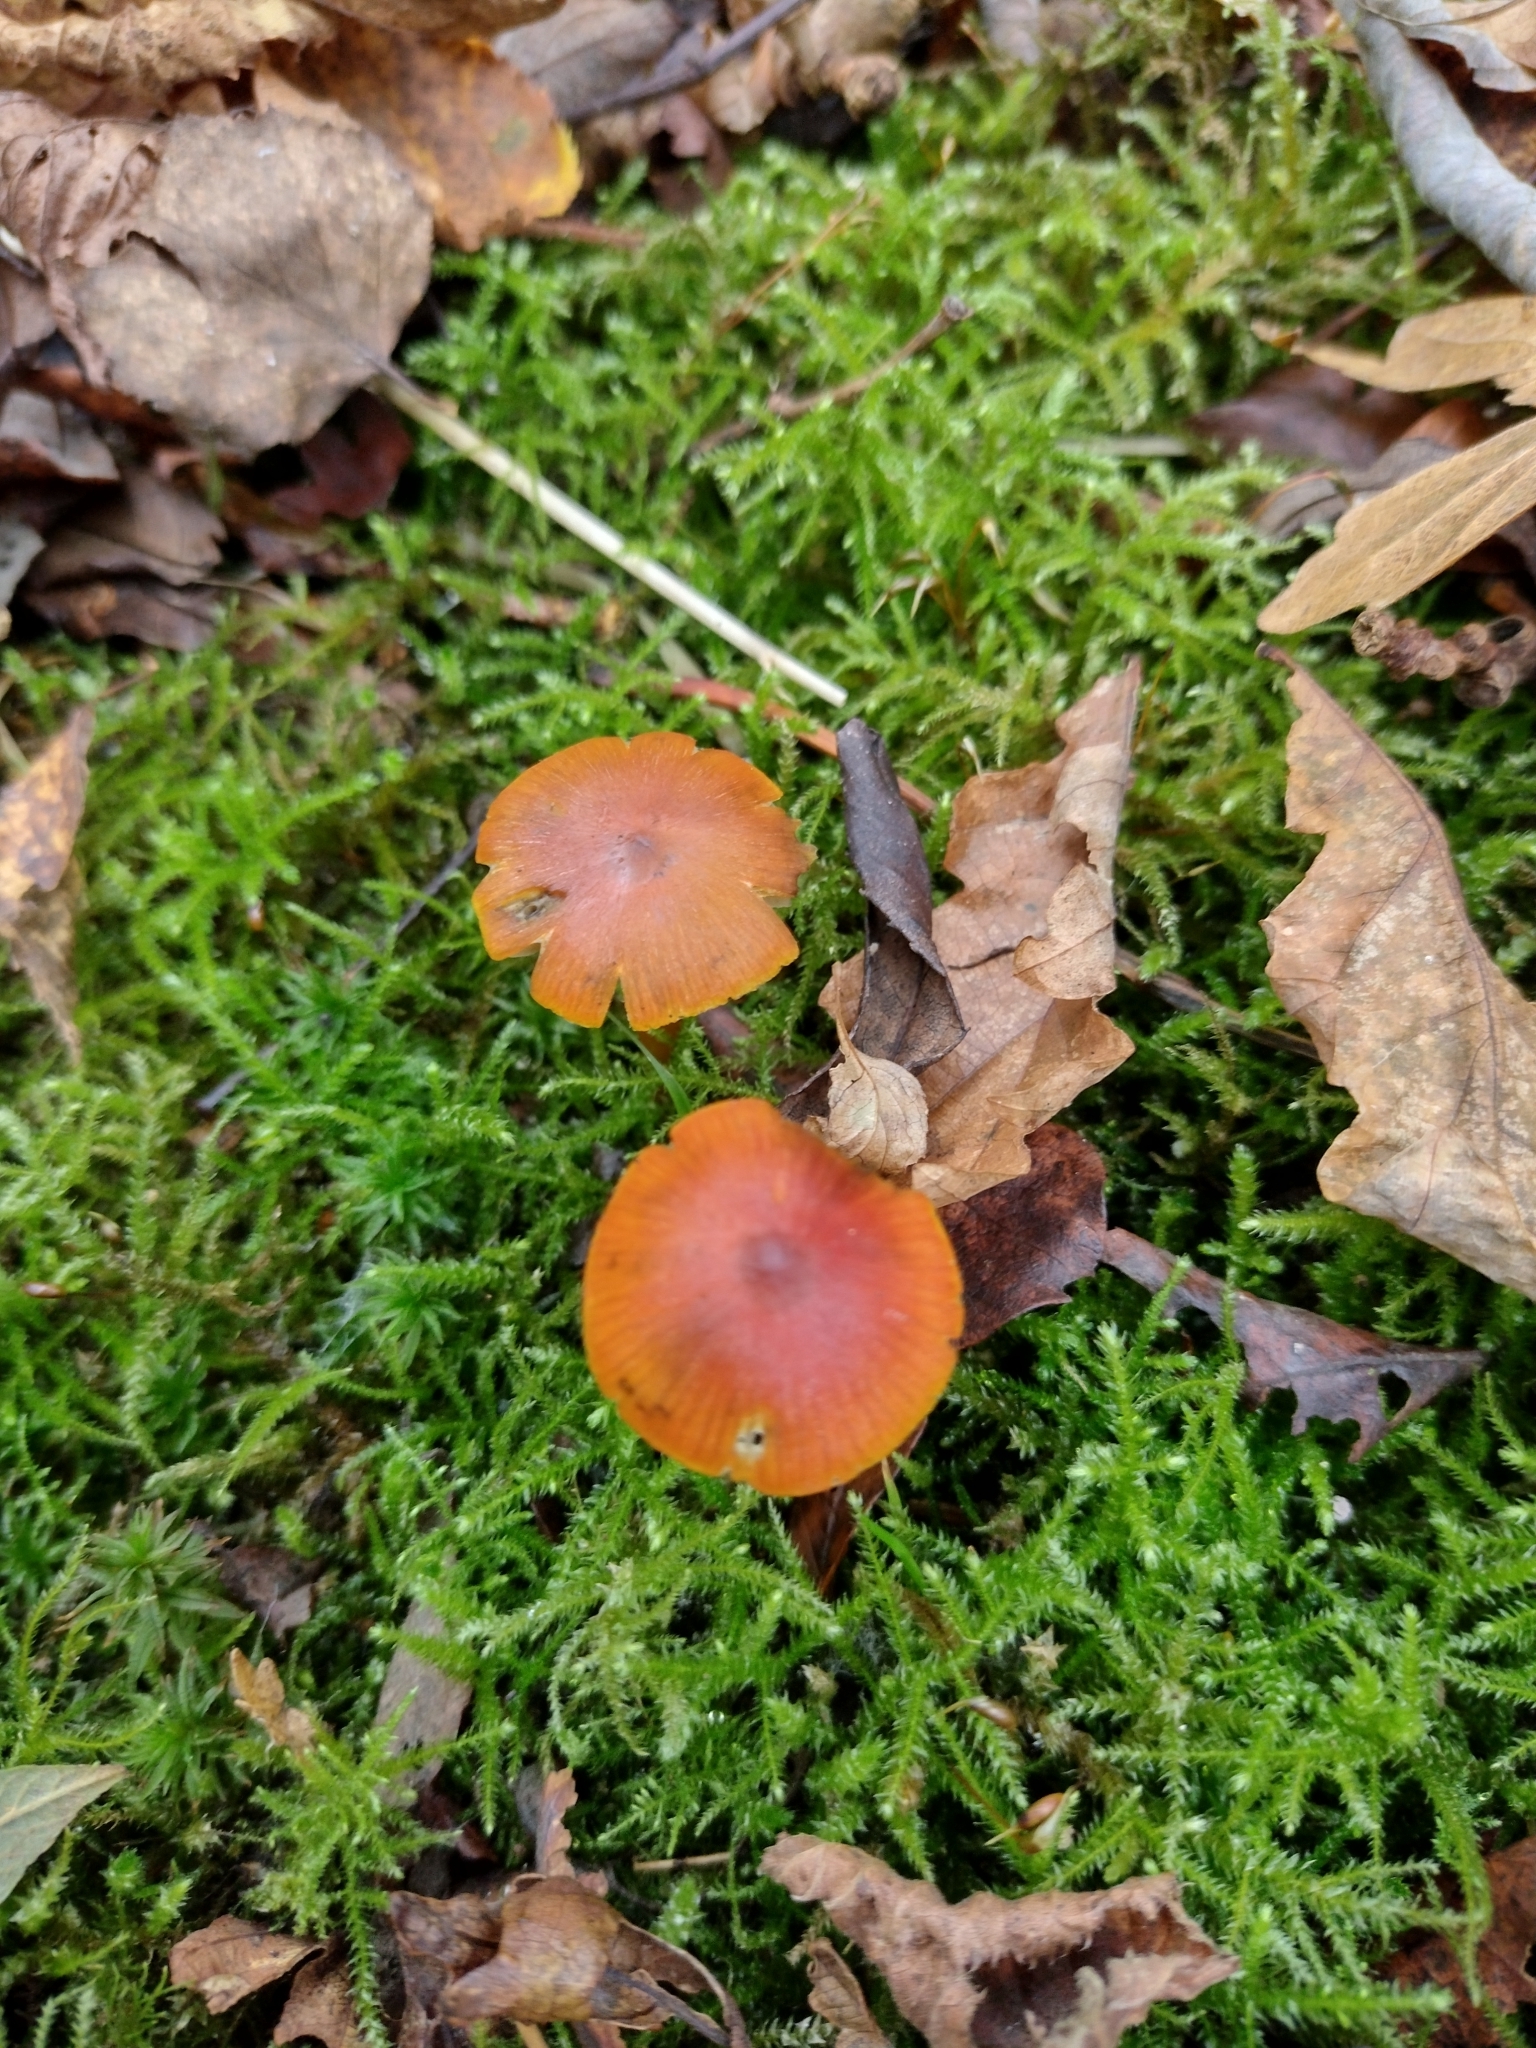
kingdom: Fungi
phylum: Basidiomycota
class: Agaricomycetes
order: Agaricales
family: Hygrophoraceae
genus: Hygrocybe
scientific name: Hygrocybe conica
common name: Blackening wax-cap
